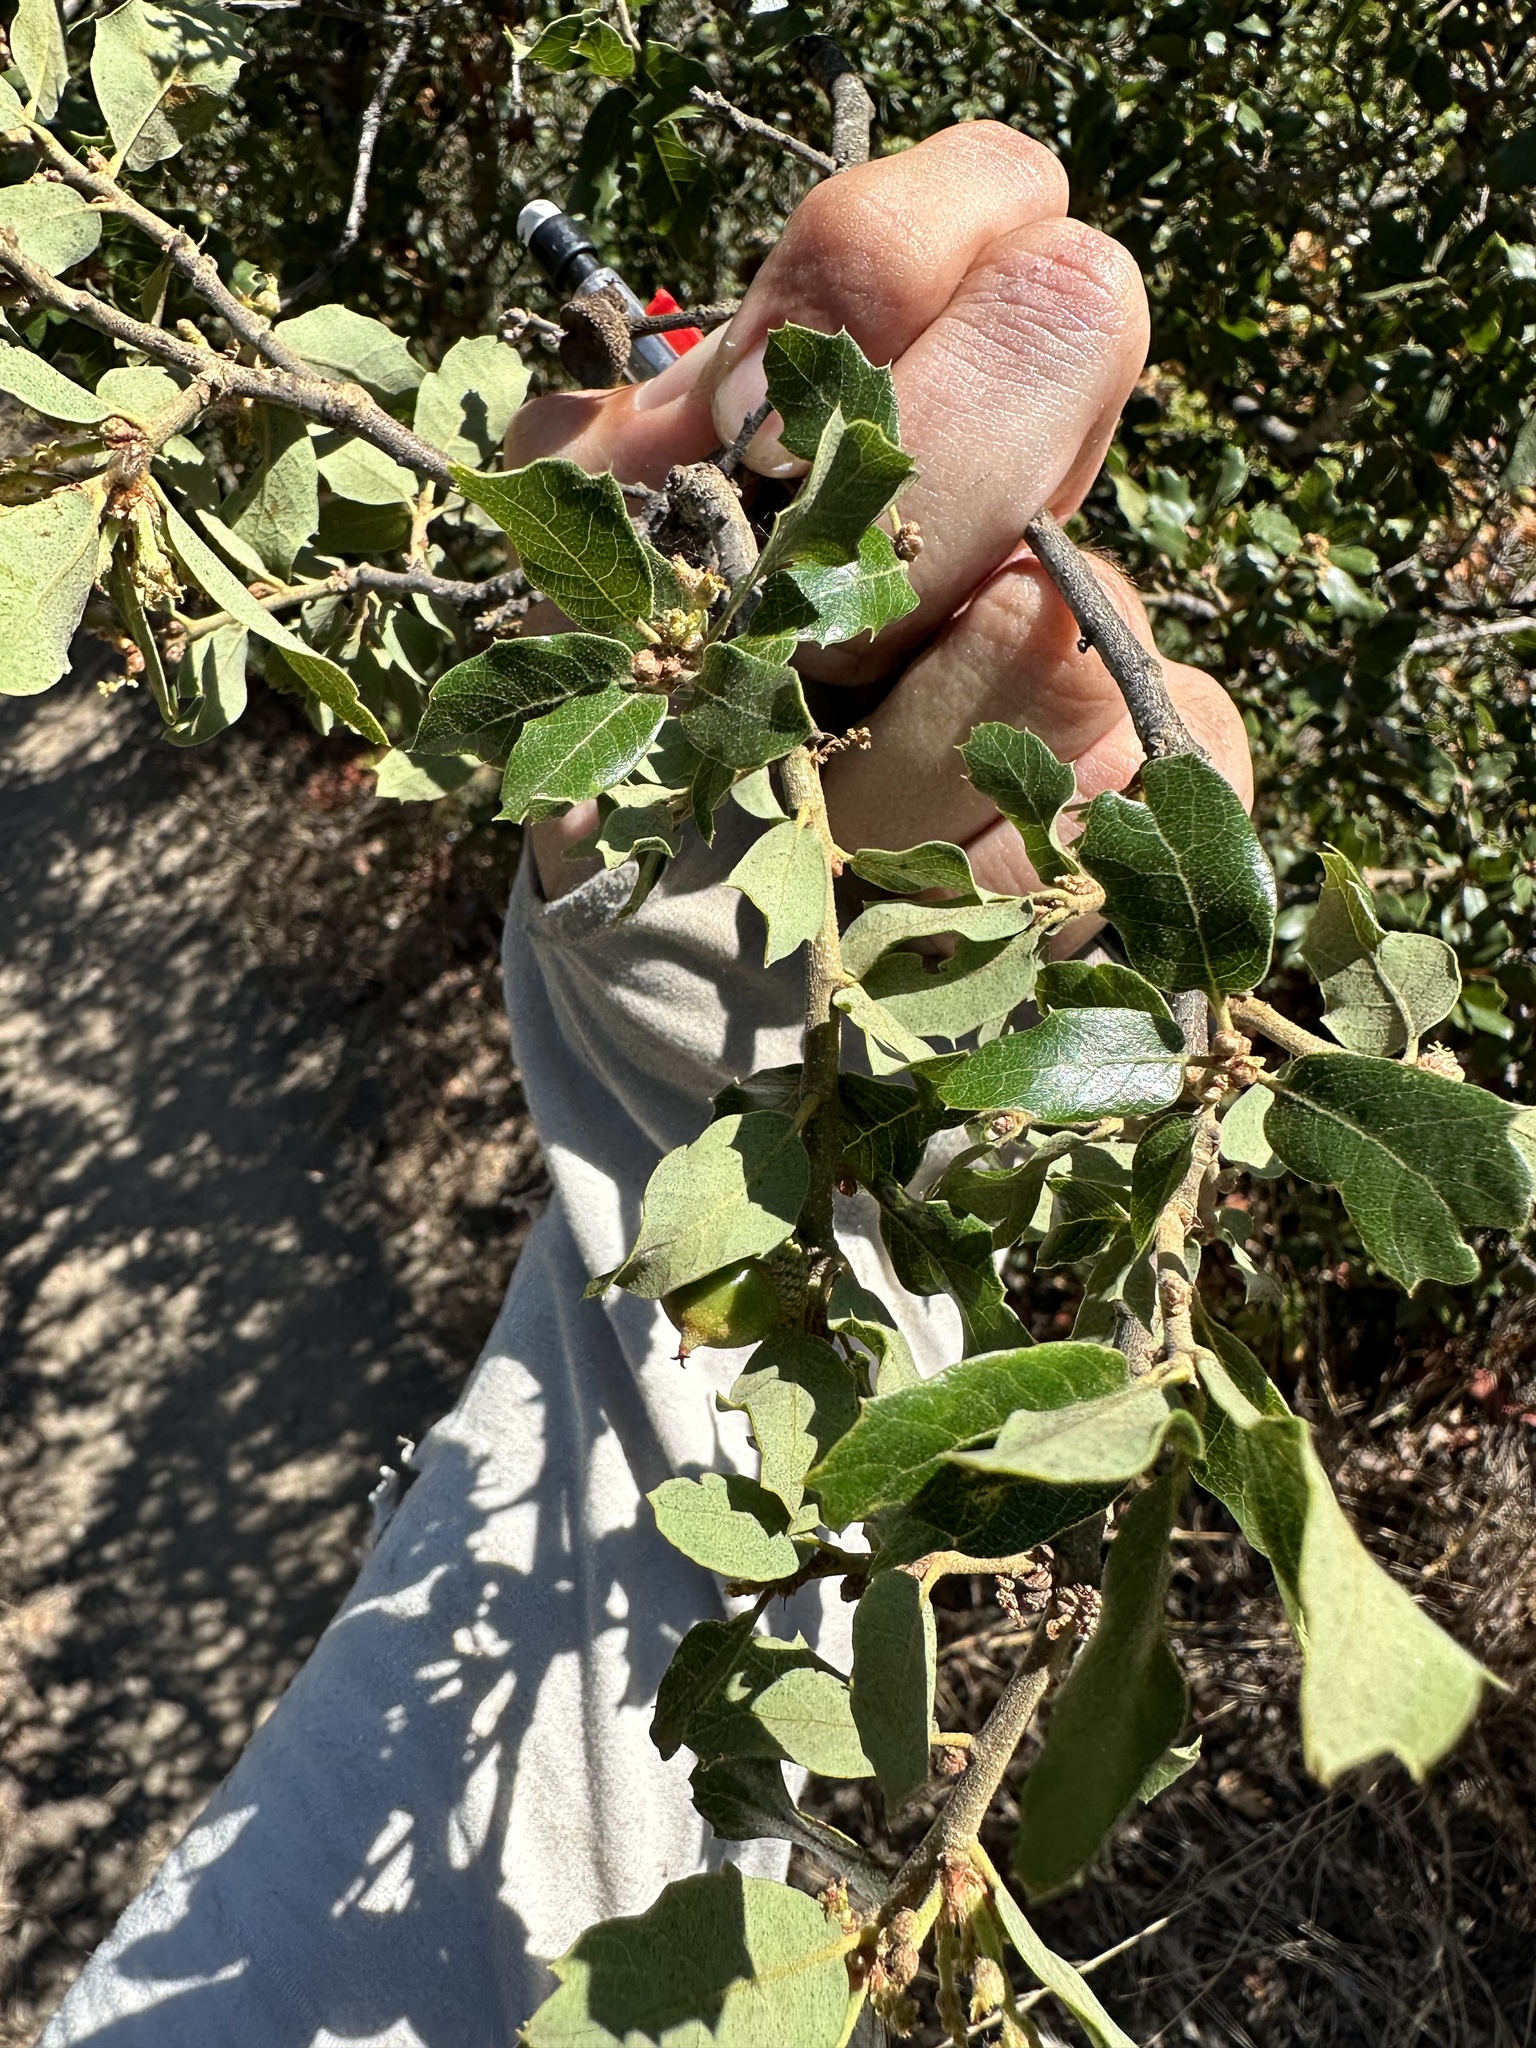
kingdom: Plantae
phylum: Tracheophyta
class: Magnoliopsida
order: Fagales
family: Fagaceae
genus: Quercus
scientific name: Quercus berberidifolia
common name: California scrub oak
